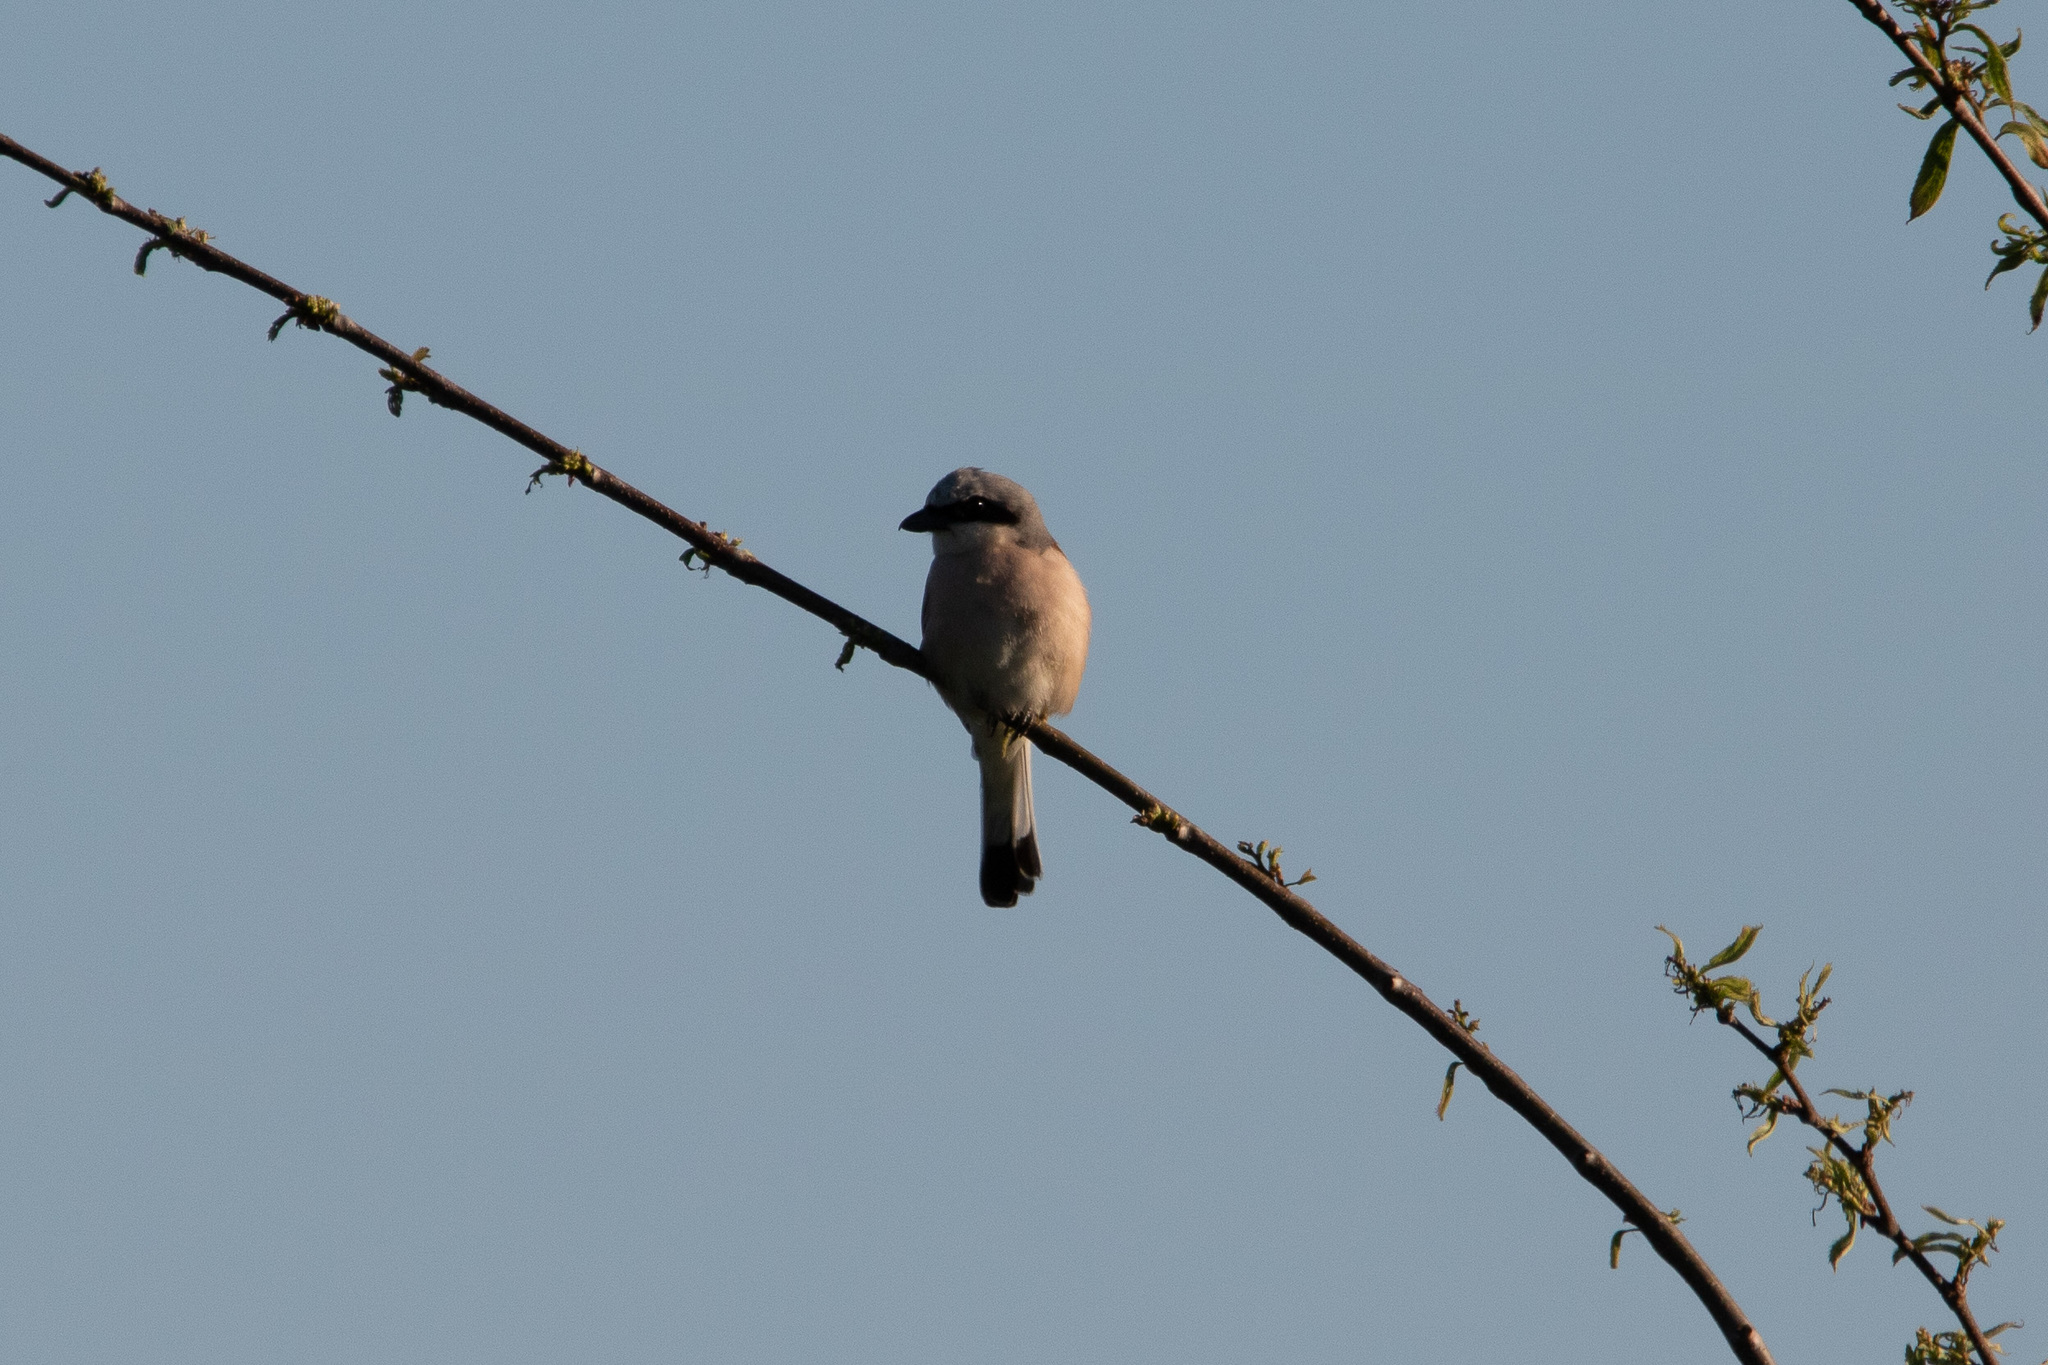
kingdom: Animalia
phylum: Chordata
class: Aves
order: Passeriformes
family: Laniidae
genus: Lanius
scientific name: Lanius collurio
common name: Red-backed shrike
